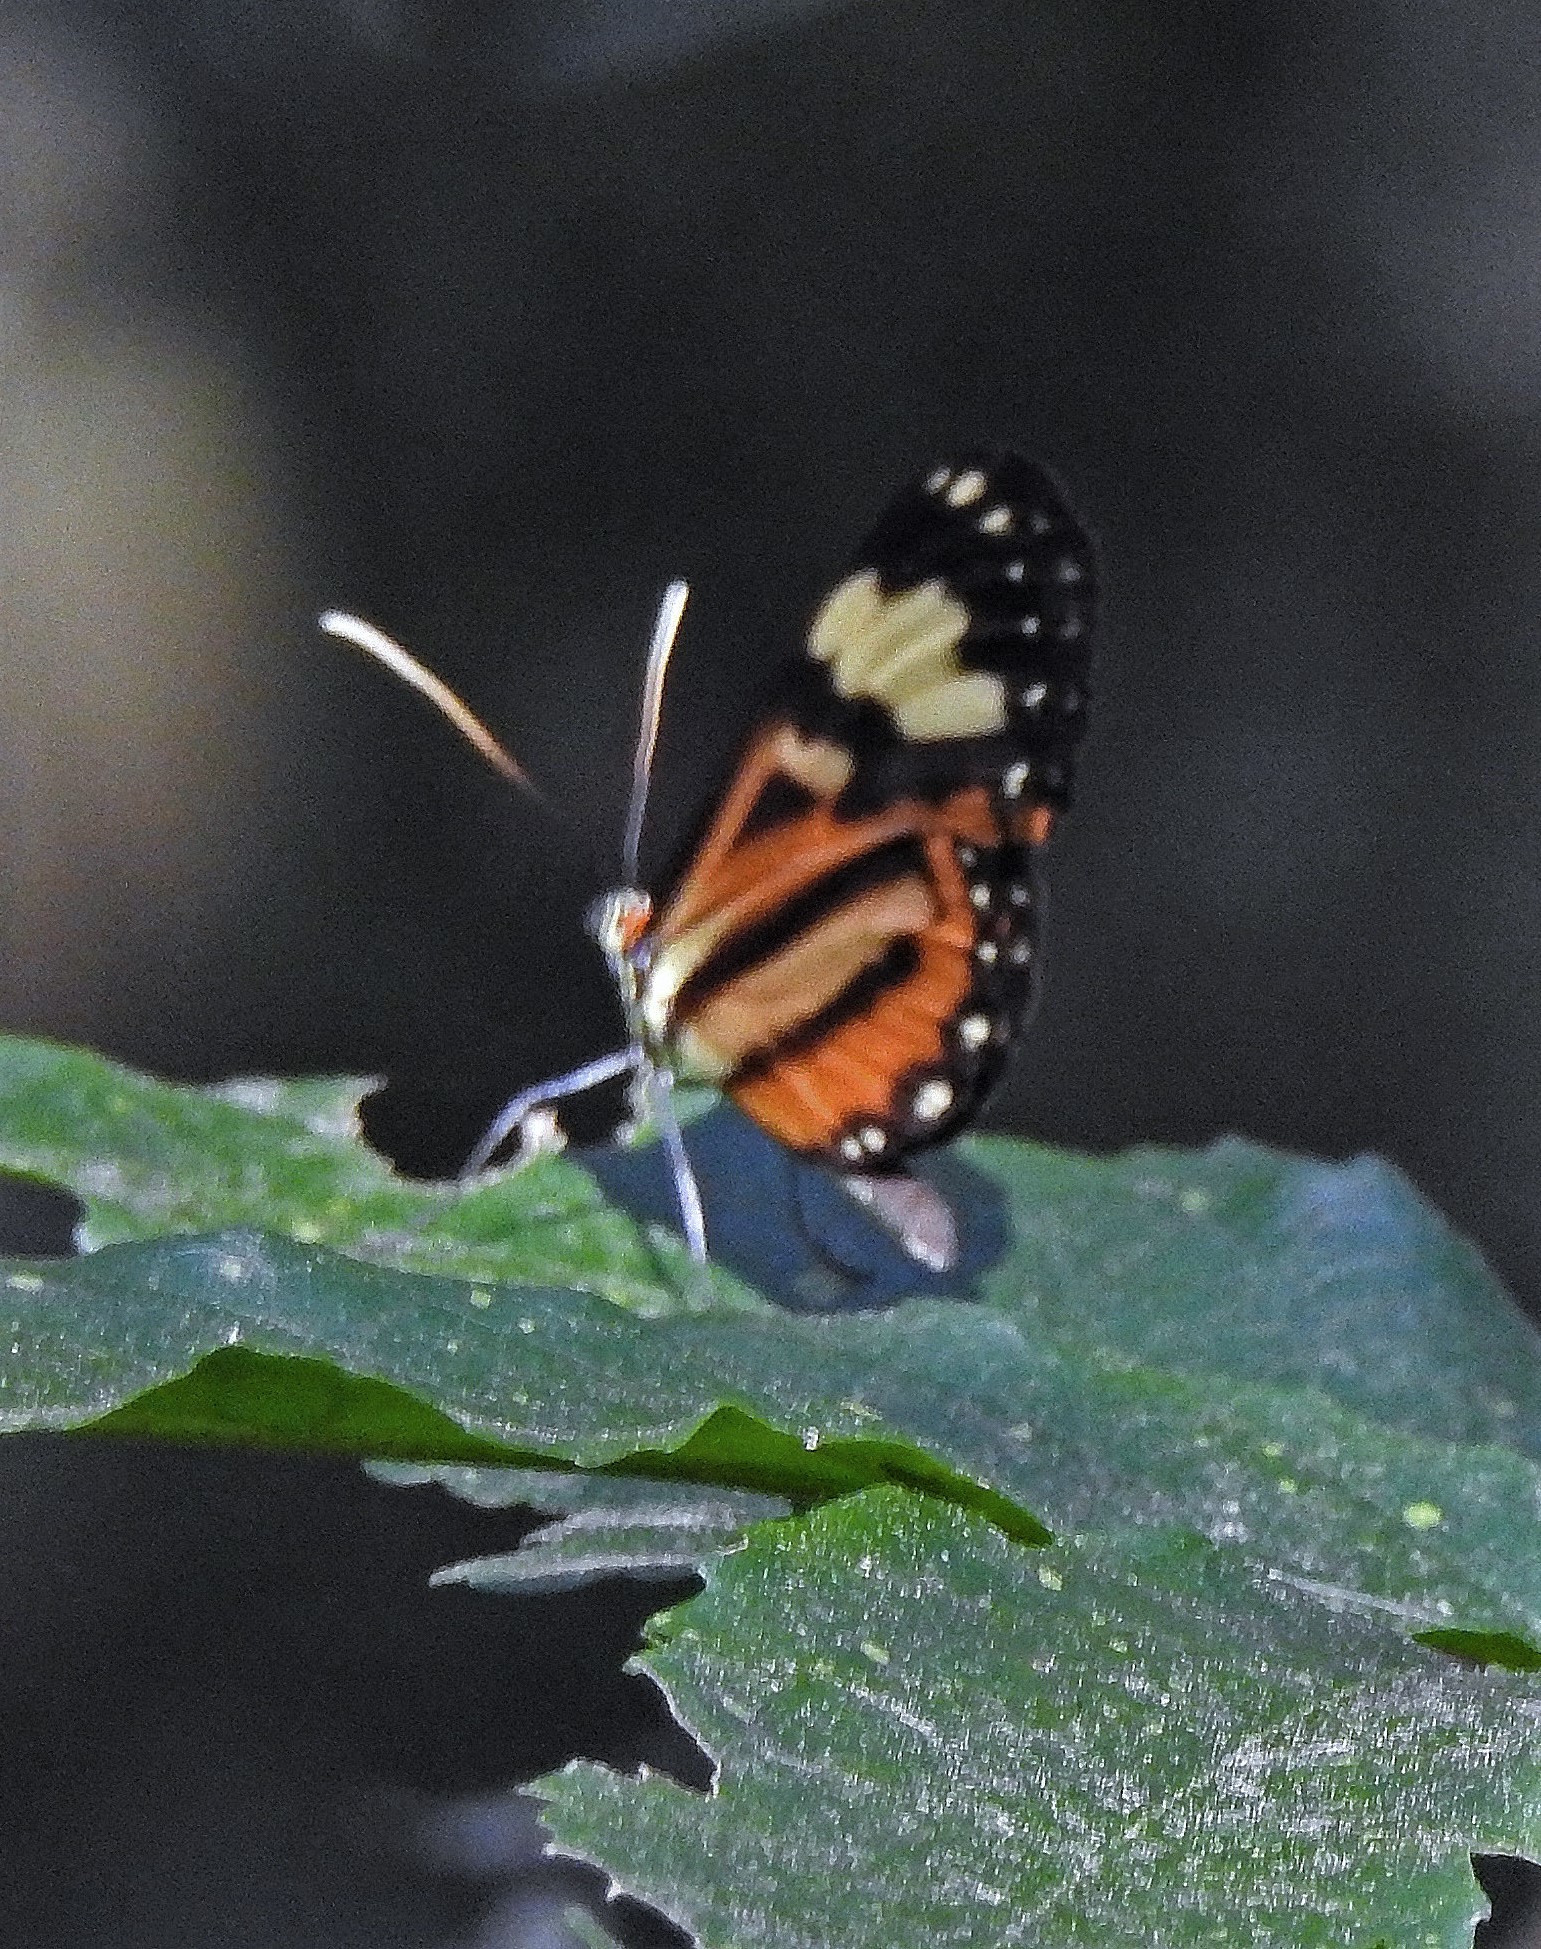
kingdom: Animalia
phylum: Arthropoda
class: Insecta
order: Lepidoptera
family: Nymphalidae
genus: Hypothyris
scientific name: Hypothyris euclea
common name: Euclea tigerwing
